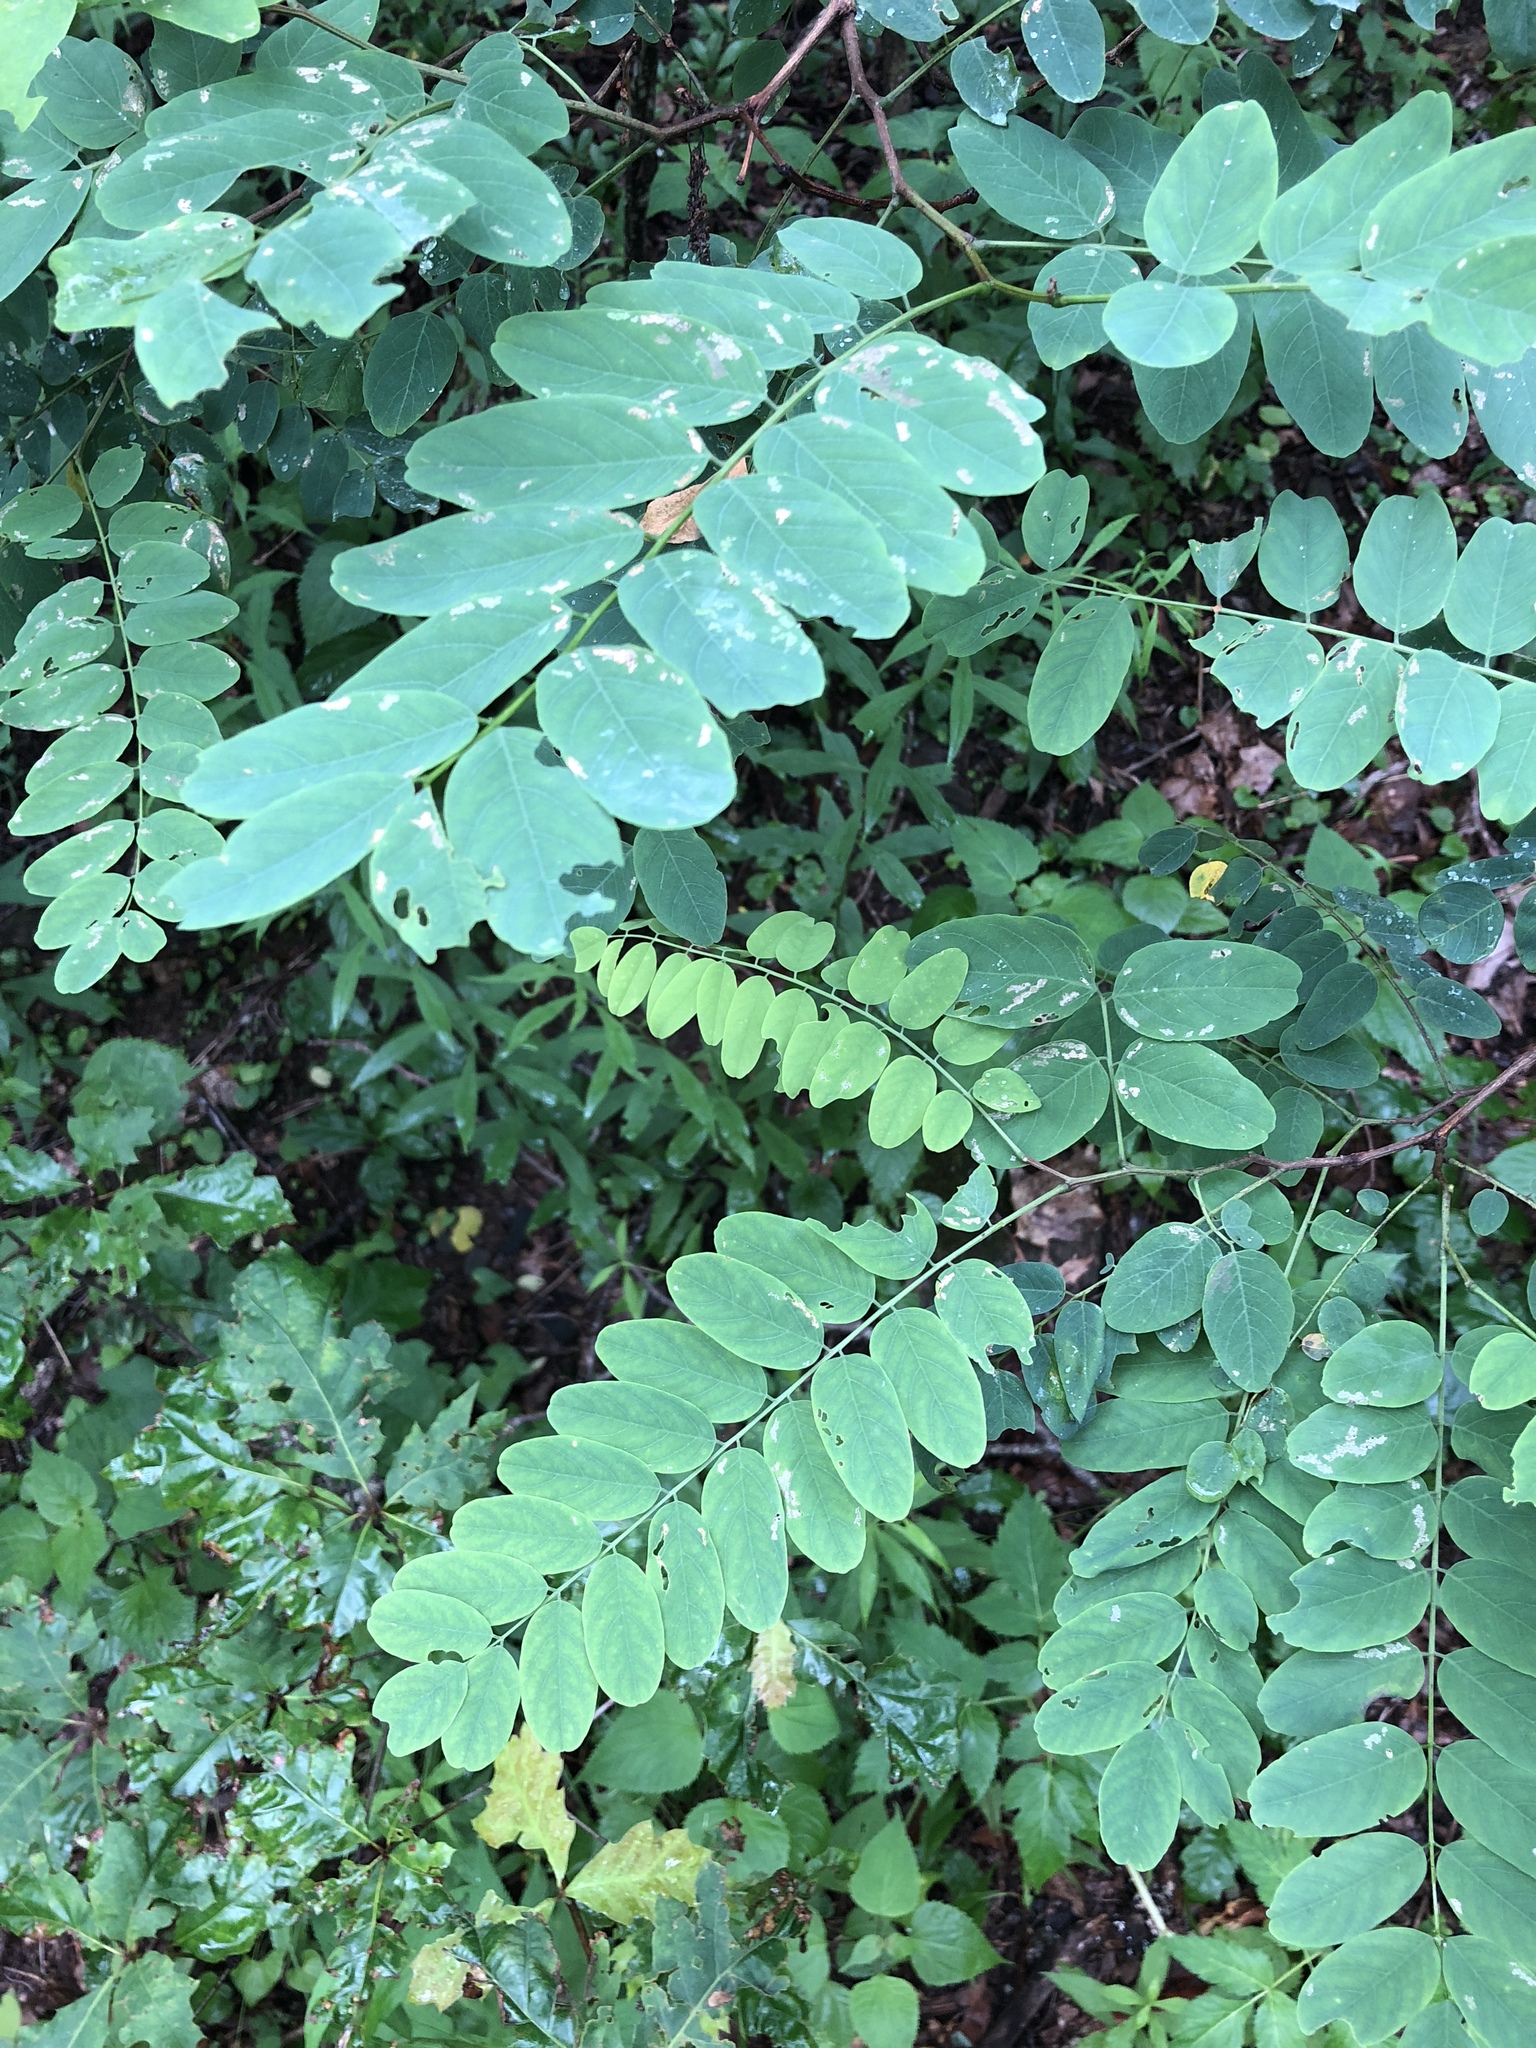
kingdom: Plantae
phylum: Tracheophyta
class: Magnoliopsida
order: Fabales
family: Fabaceae
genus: Robinia
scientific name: Robinia pseudoacacia
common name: Black locust
